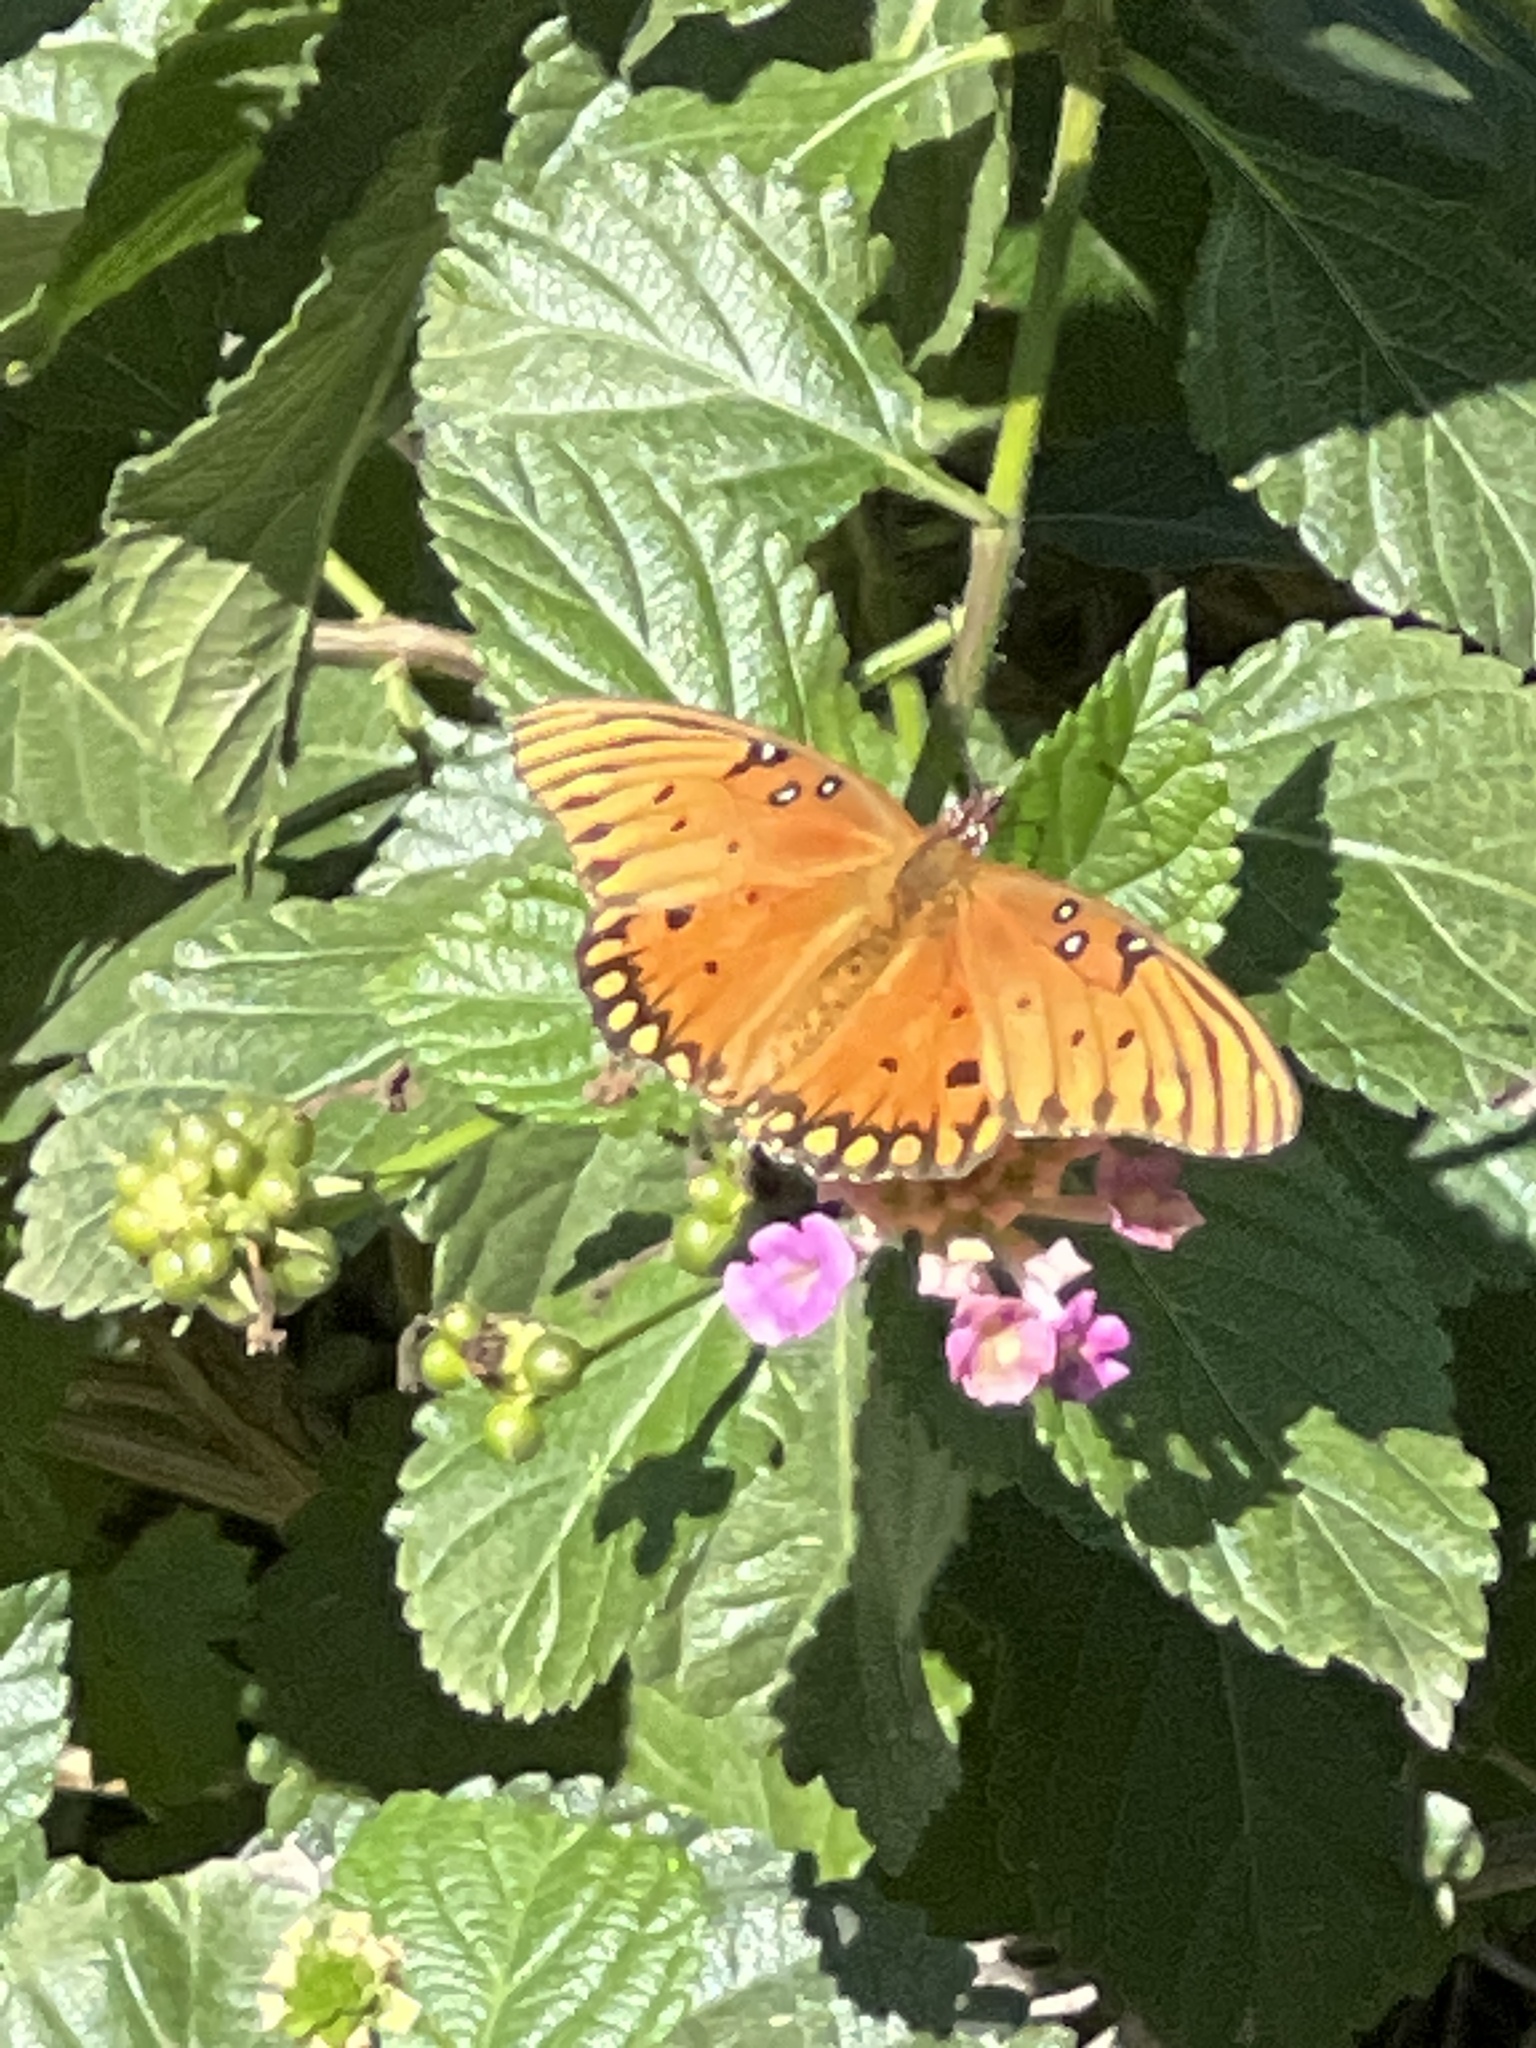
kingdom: Animalia
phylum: Arthropoda
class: Insecta
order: Lepidoptera
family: Nymphalidae
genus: Dione
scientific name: Dione vanillae
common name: Gulf fritillary
